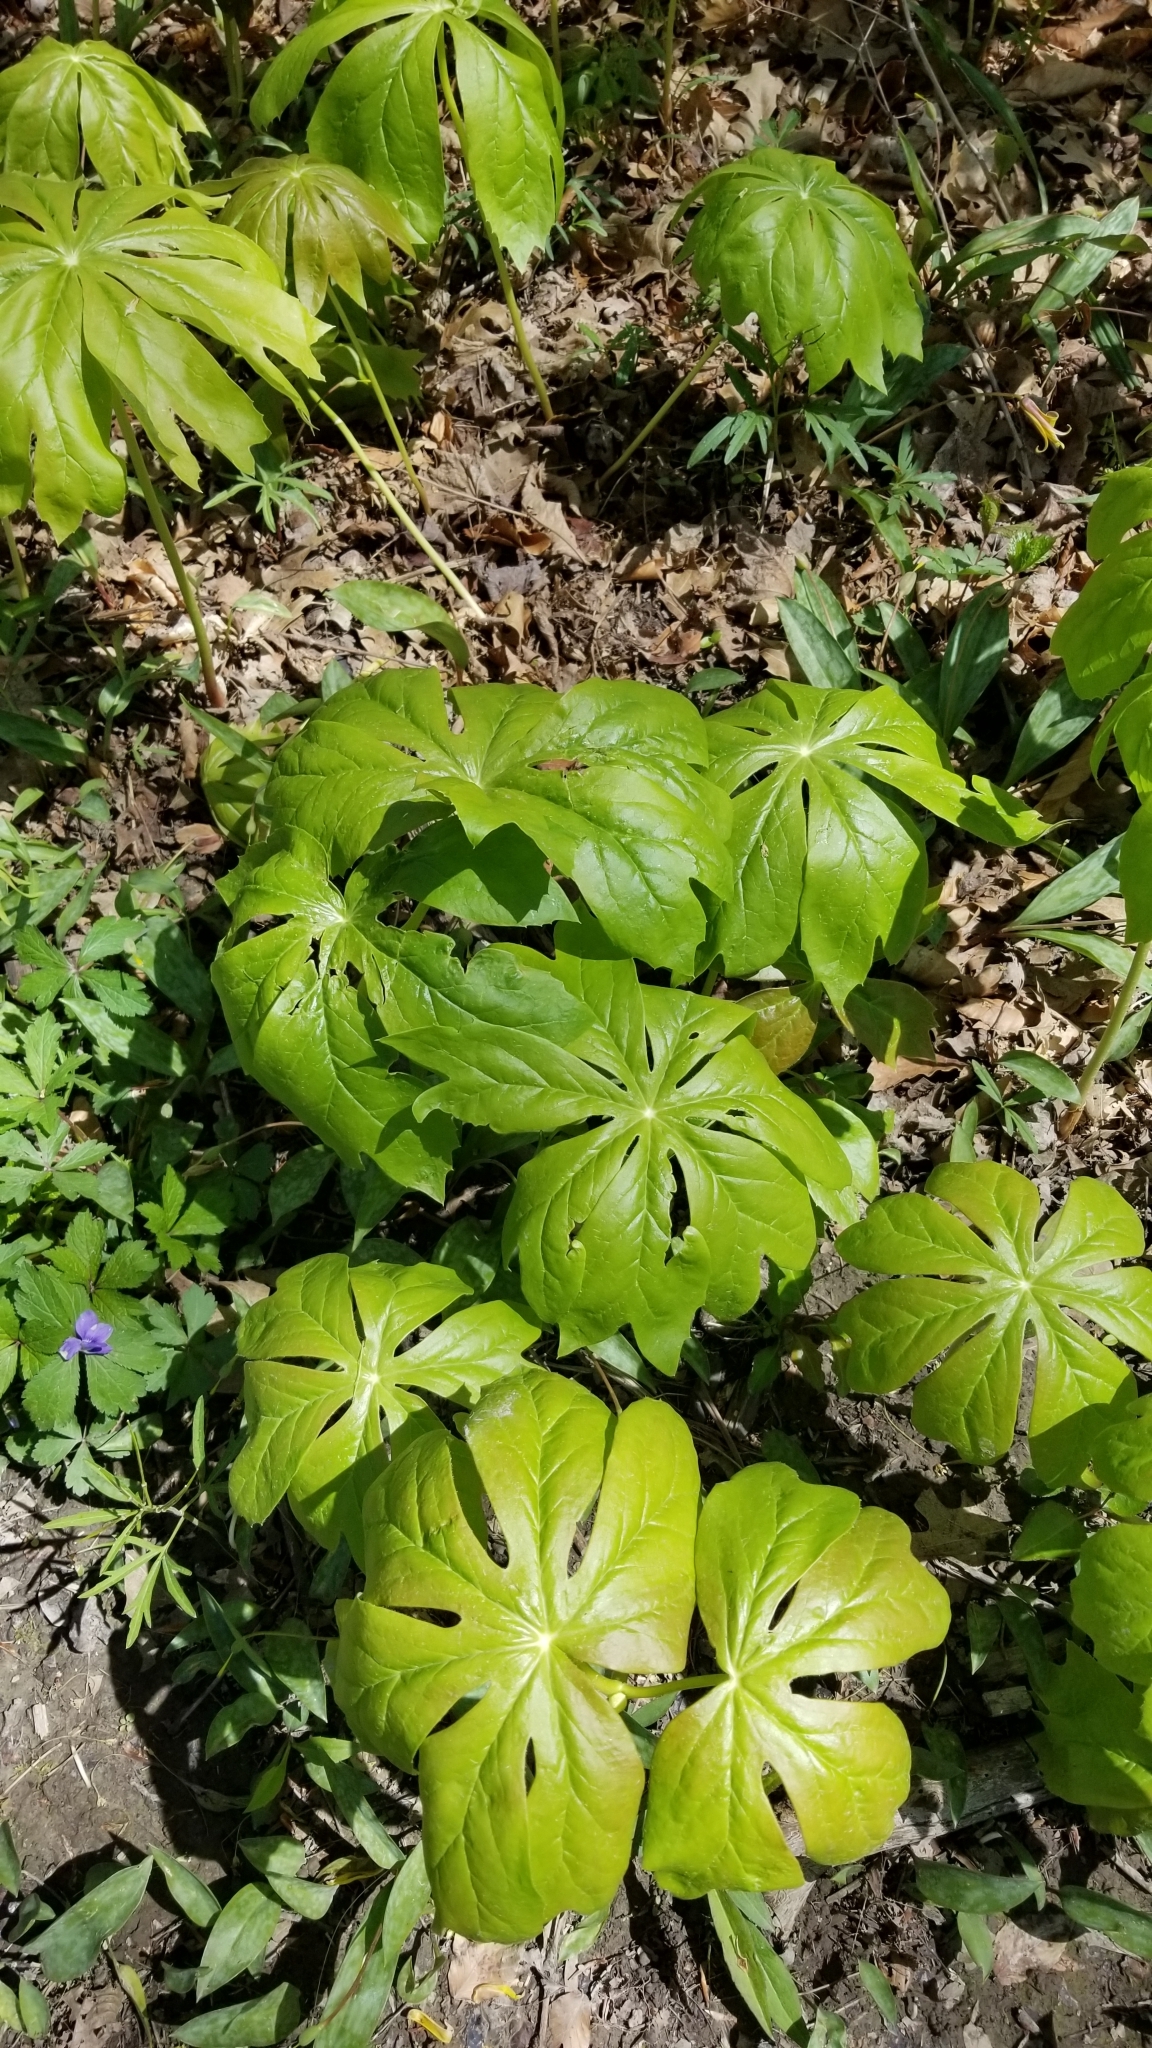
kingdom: Plantae
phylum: Tracheophyta
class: Magnoliopsida
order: Ranunculales
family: Berberidaceae
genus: Podophyllum
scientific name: Podophyllum peltatum
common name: Wild mandrake
